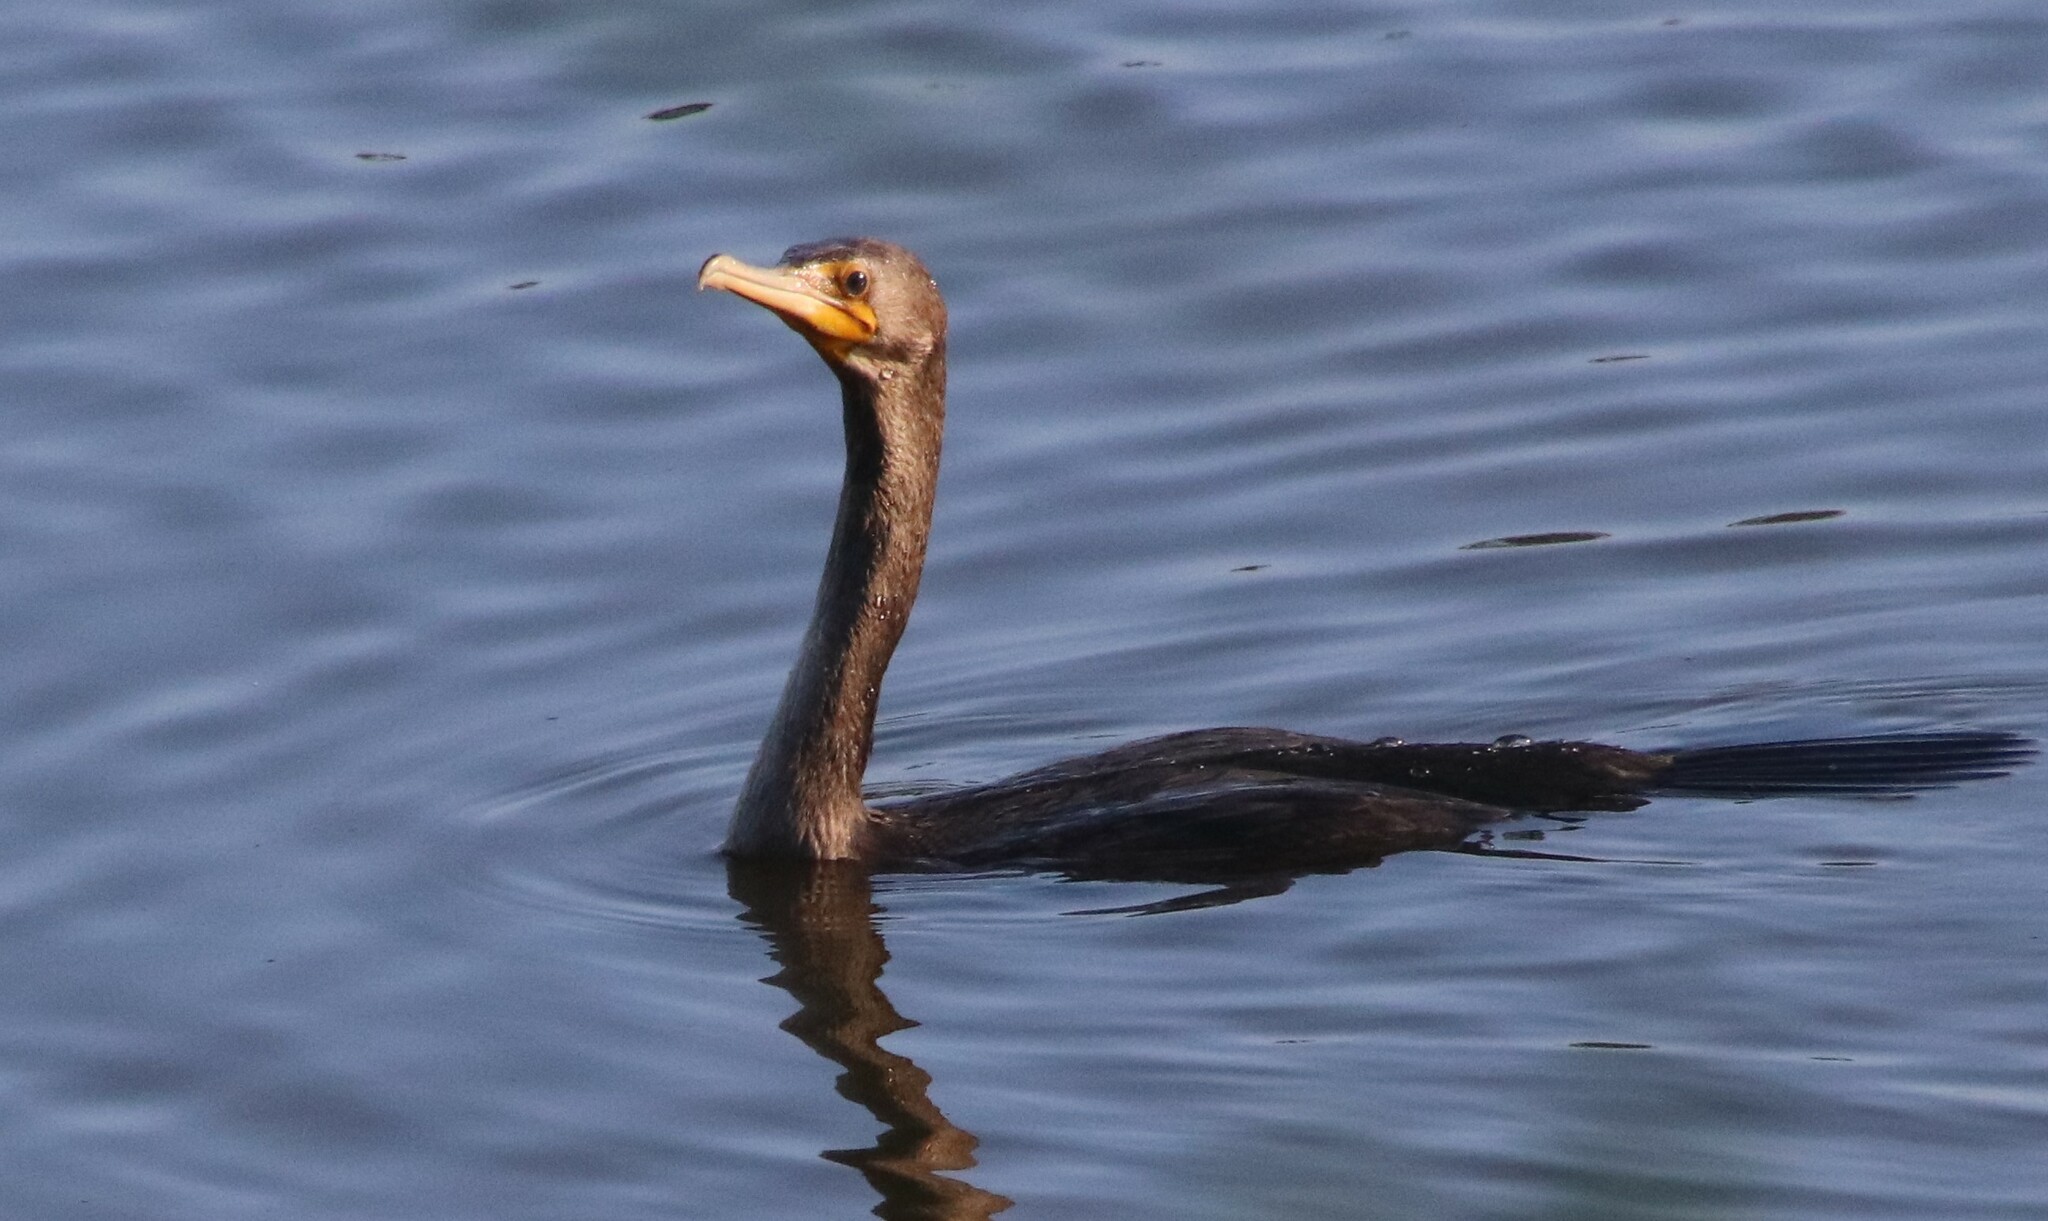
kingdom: Animalia
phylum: Chordata
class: Aves
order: Suliformes
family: Phalacrocoracidae
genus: Phalacrocorax
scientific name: Phalacrocorax auritus
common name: Double-crested cormorant
